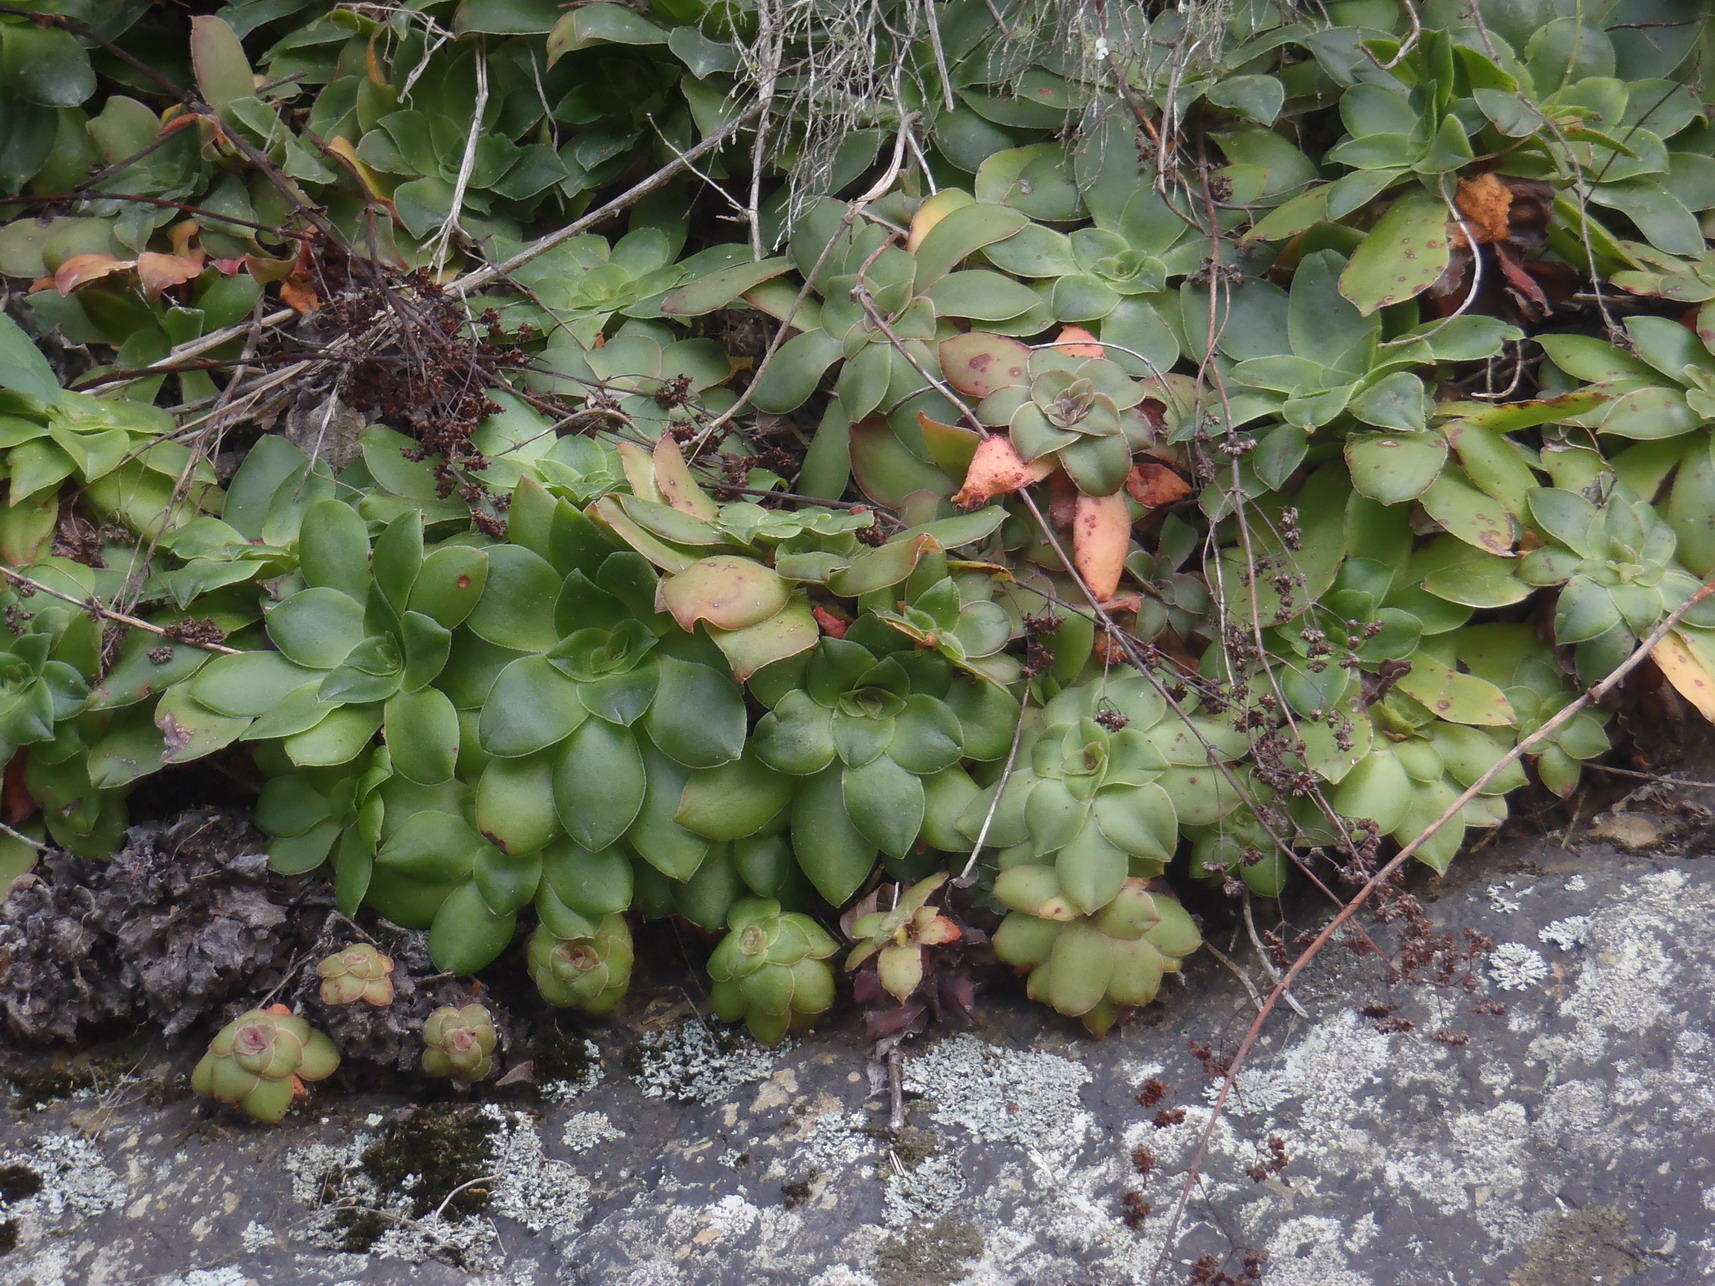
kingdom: Plantae
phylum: Tracheophyta
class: Magnoliopsida
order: Saxifragales
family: Crassulaceae
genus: Crassula
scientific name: Crassula orbicularis
